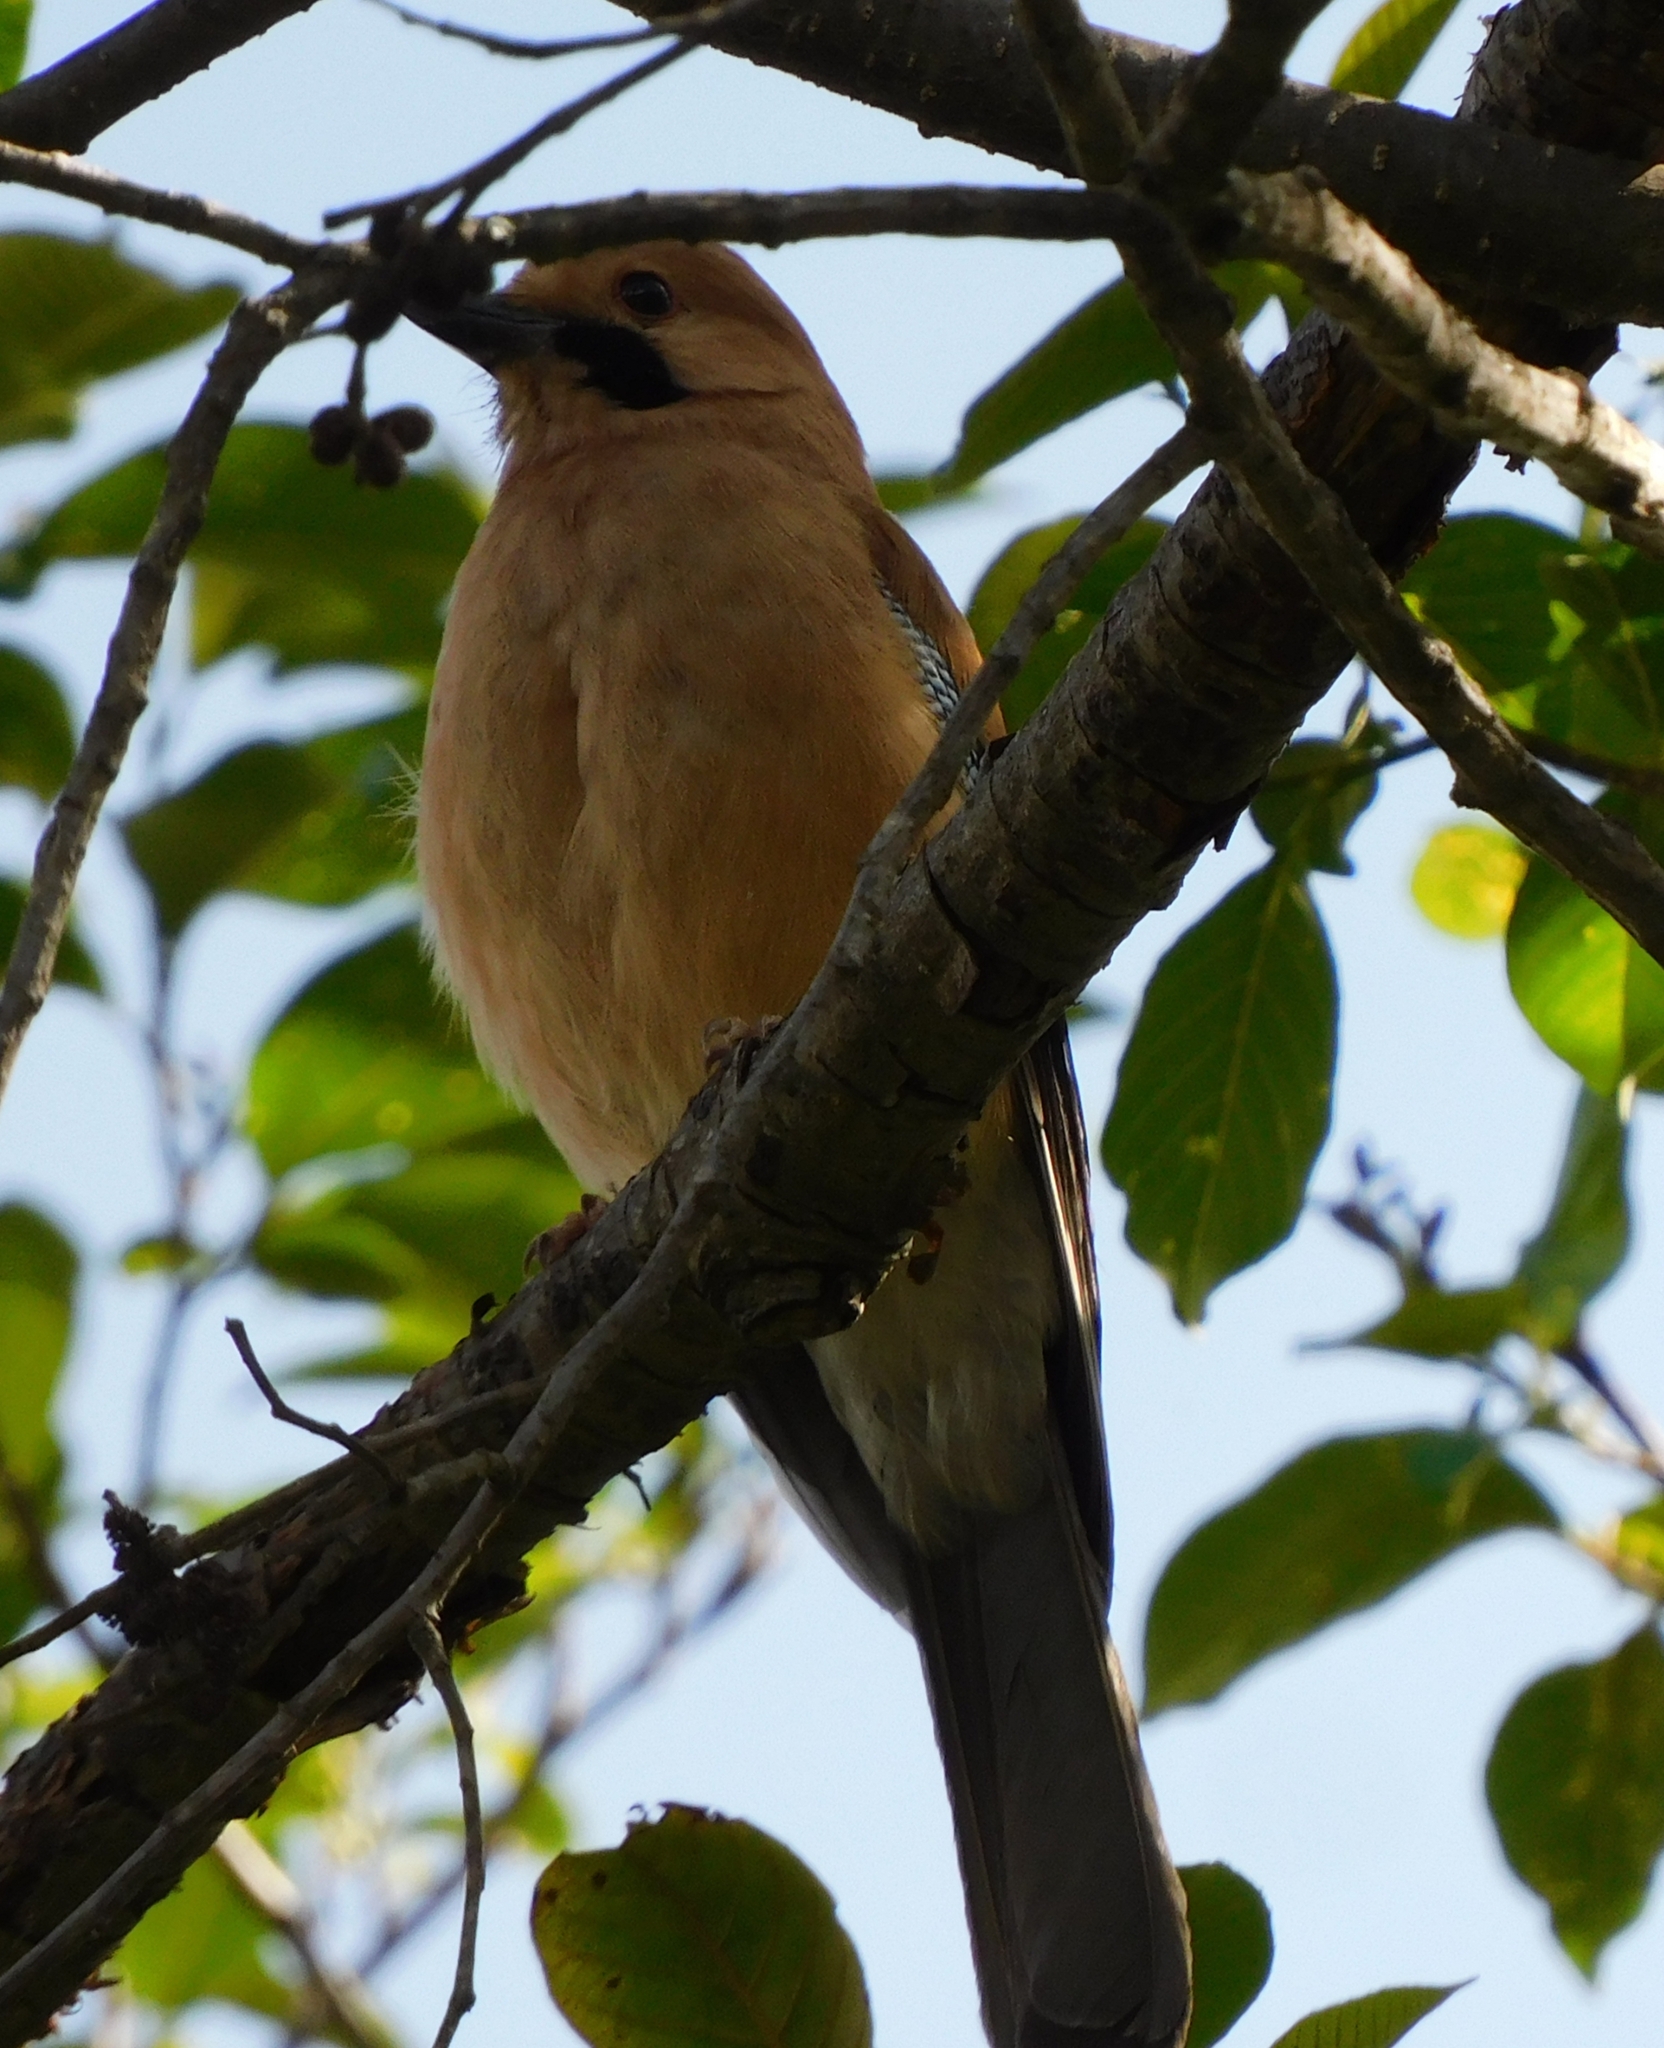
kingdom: Animalia
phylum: Chordata
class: Aves
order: Passeriformes
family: Corvidae
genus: Garrulus
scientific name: Garrulus glandarius
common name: Eurasian jay
